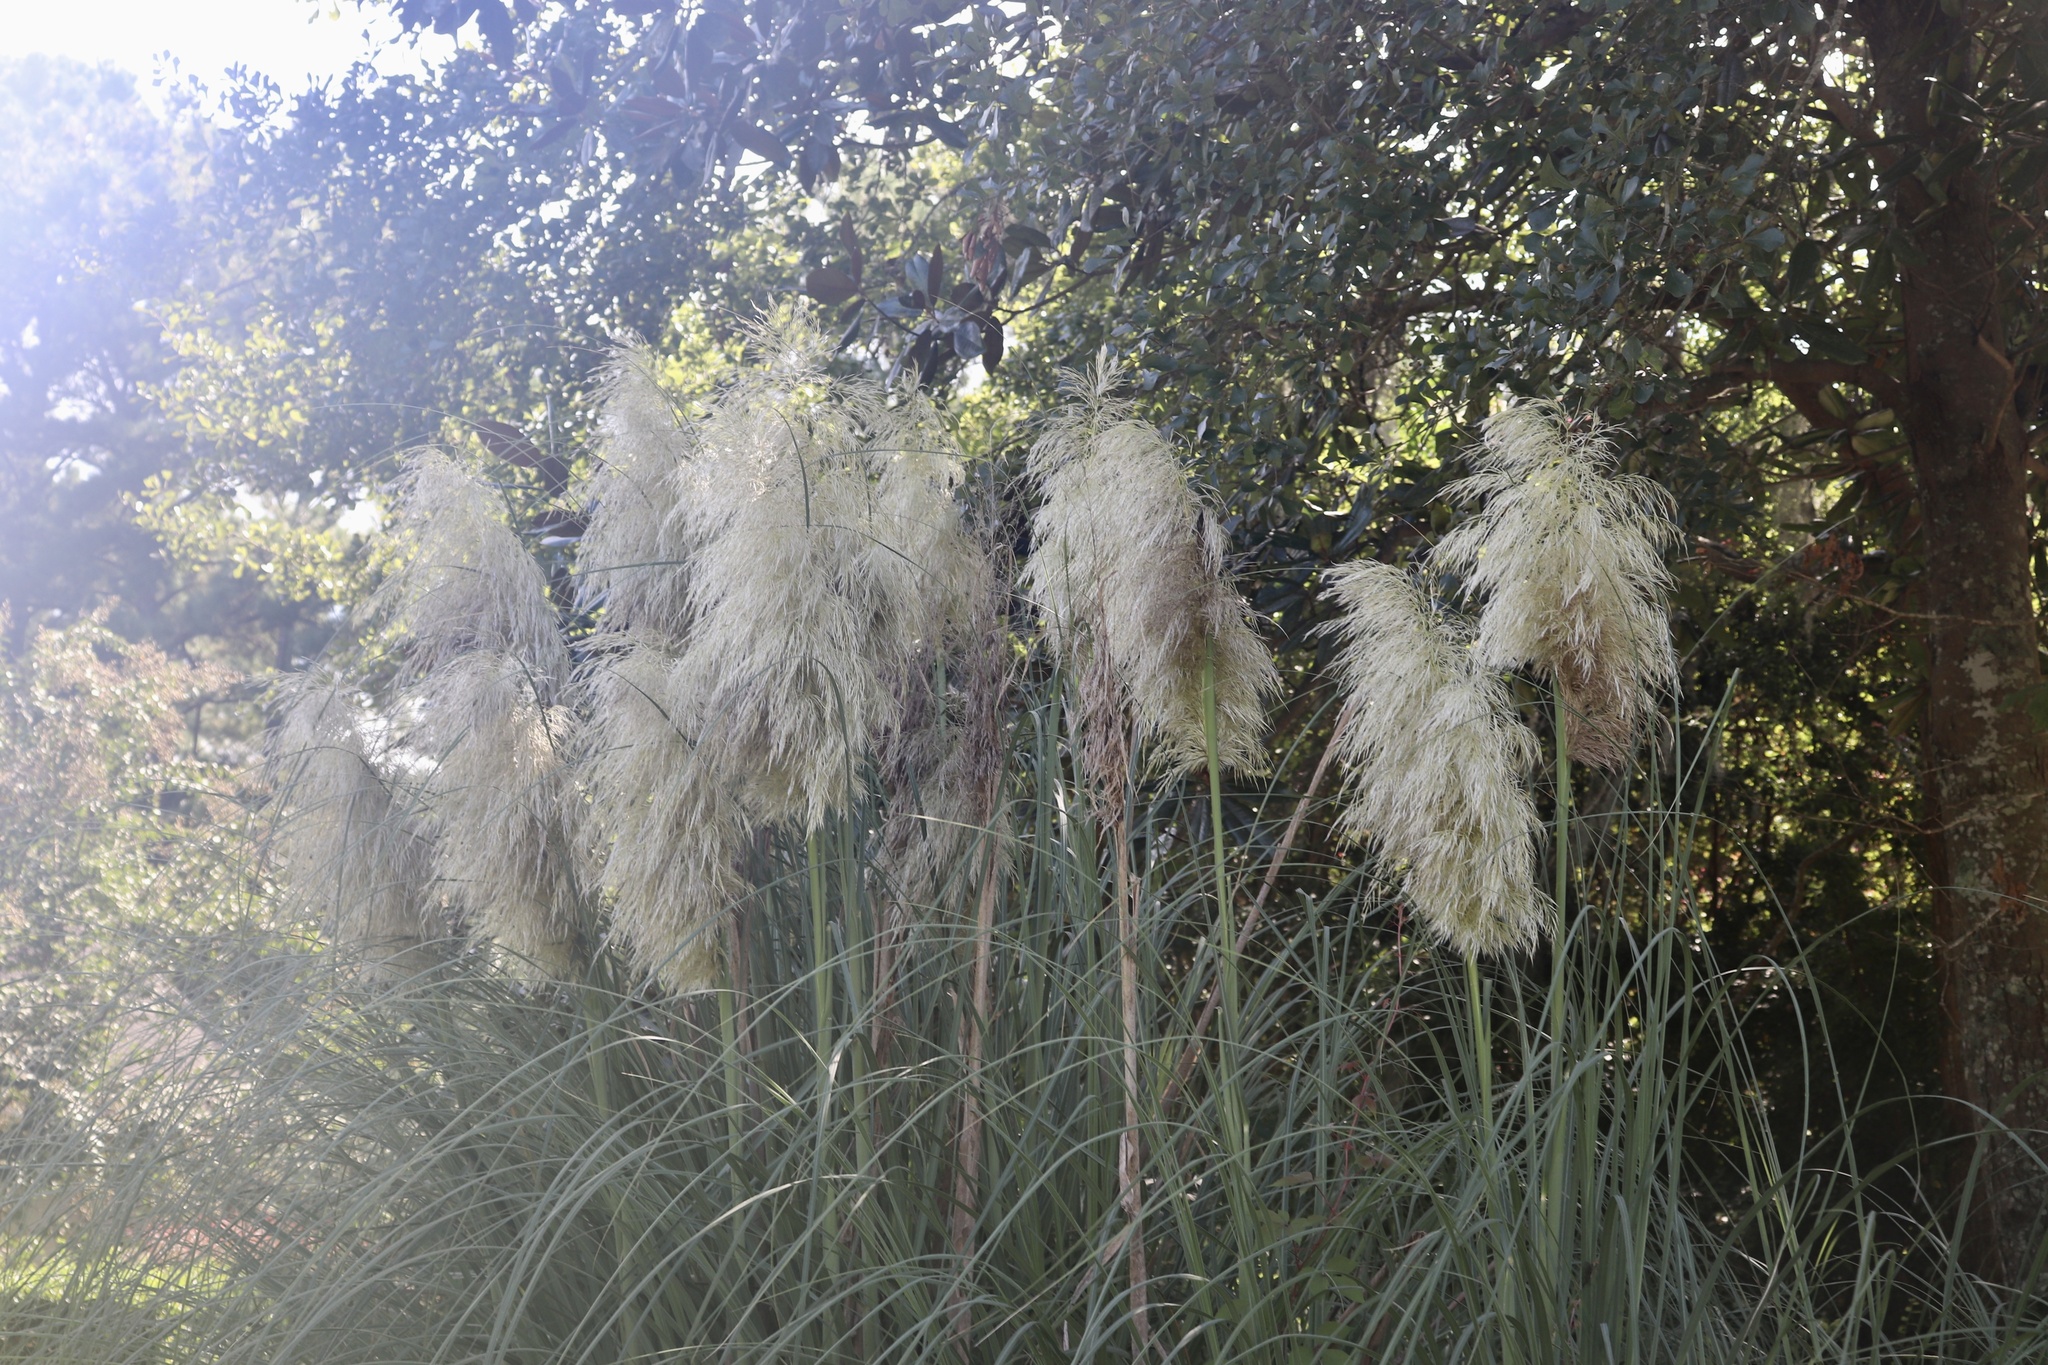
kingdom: Plantae
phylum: Tracheophyta
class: Liliopsida
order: Poales
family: Poaceae
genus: Cortaderia
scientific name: Cortaderia selloana
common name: Uruguayan pampas grass
